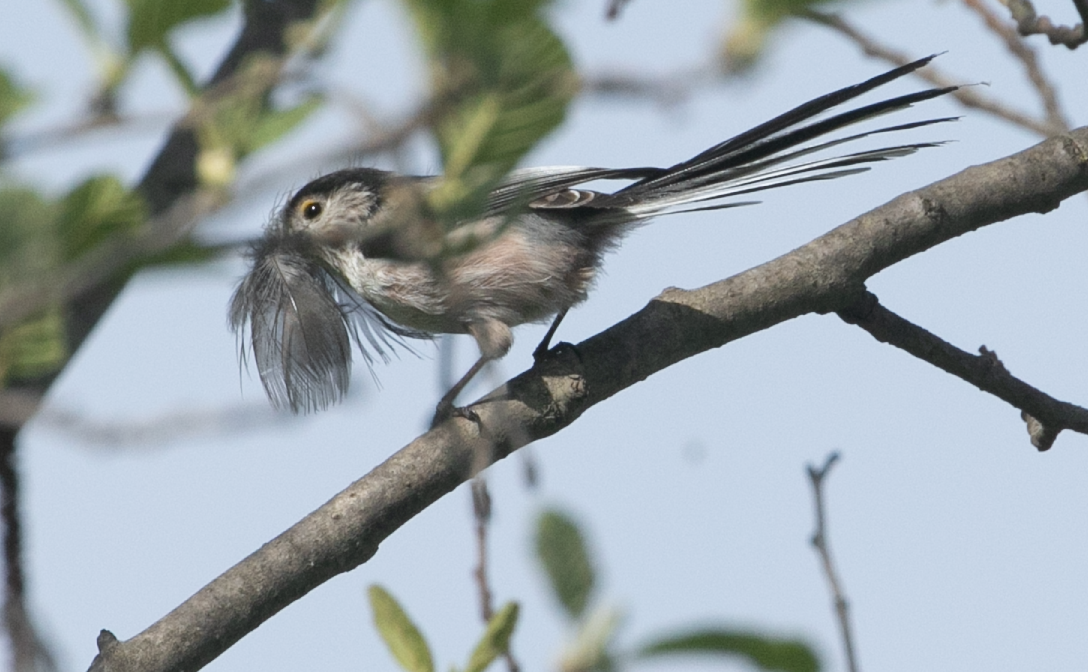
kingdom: Animalia
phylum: Chordata
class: Aves
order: Passeriformes
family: Aegithalidae
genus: Aegithalos
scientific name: Aegithalos caudatus
